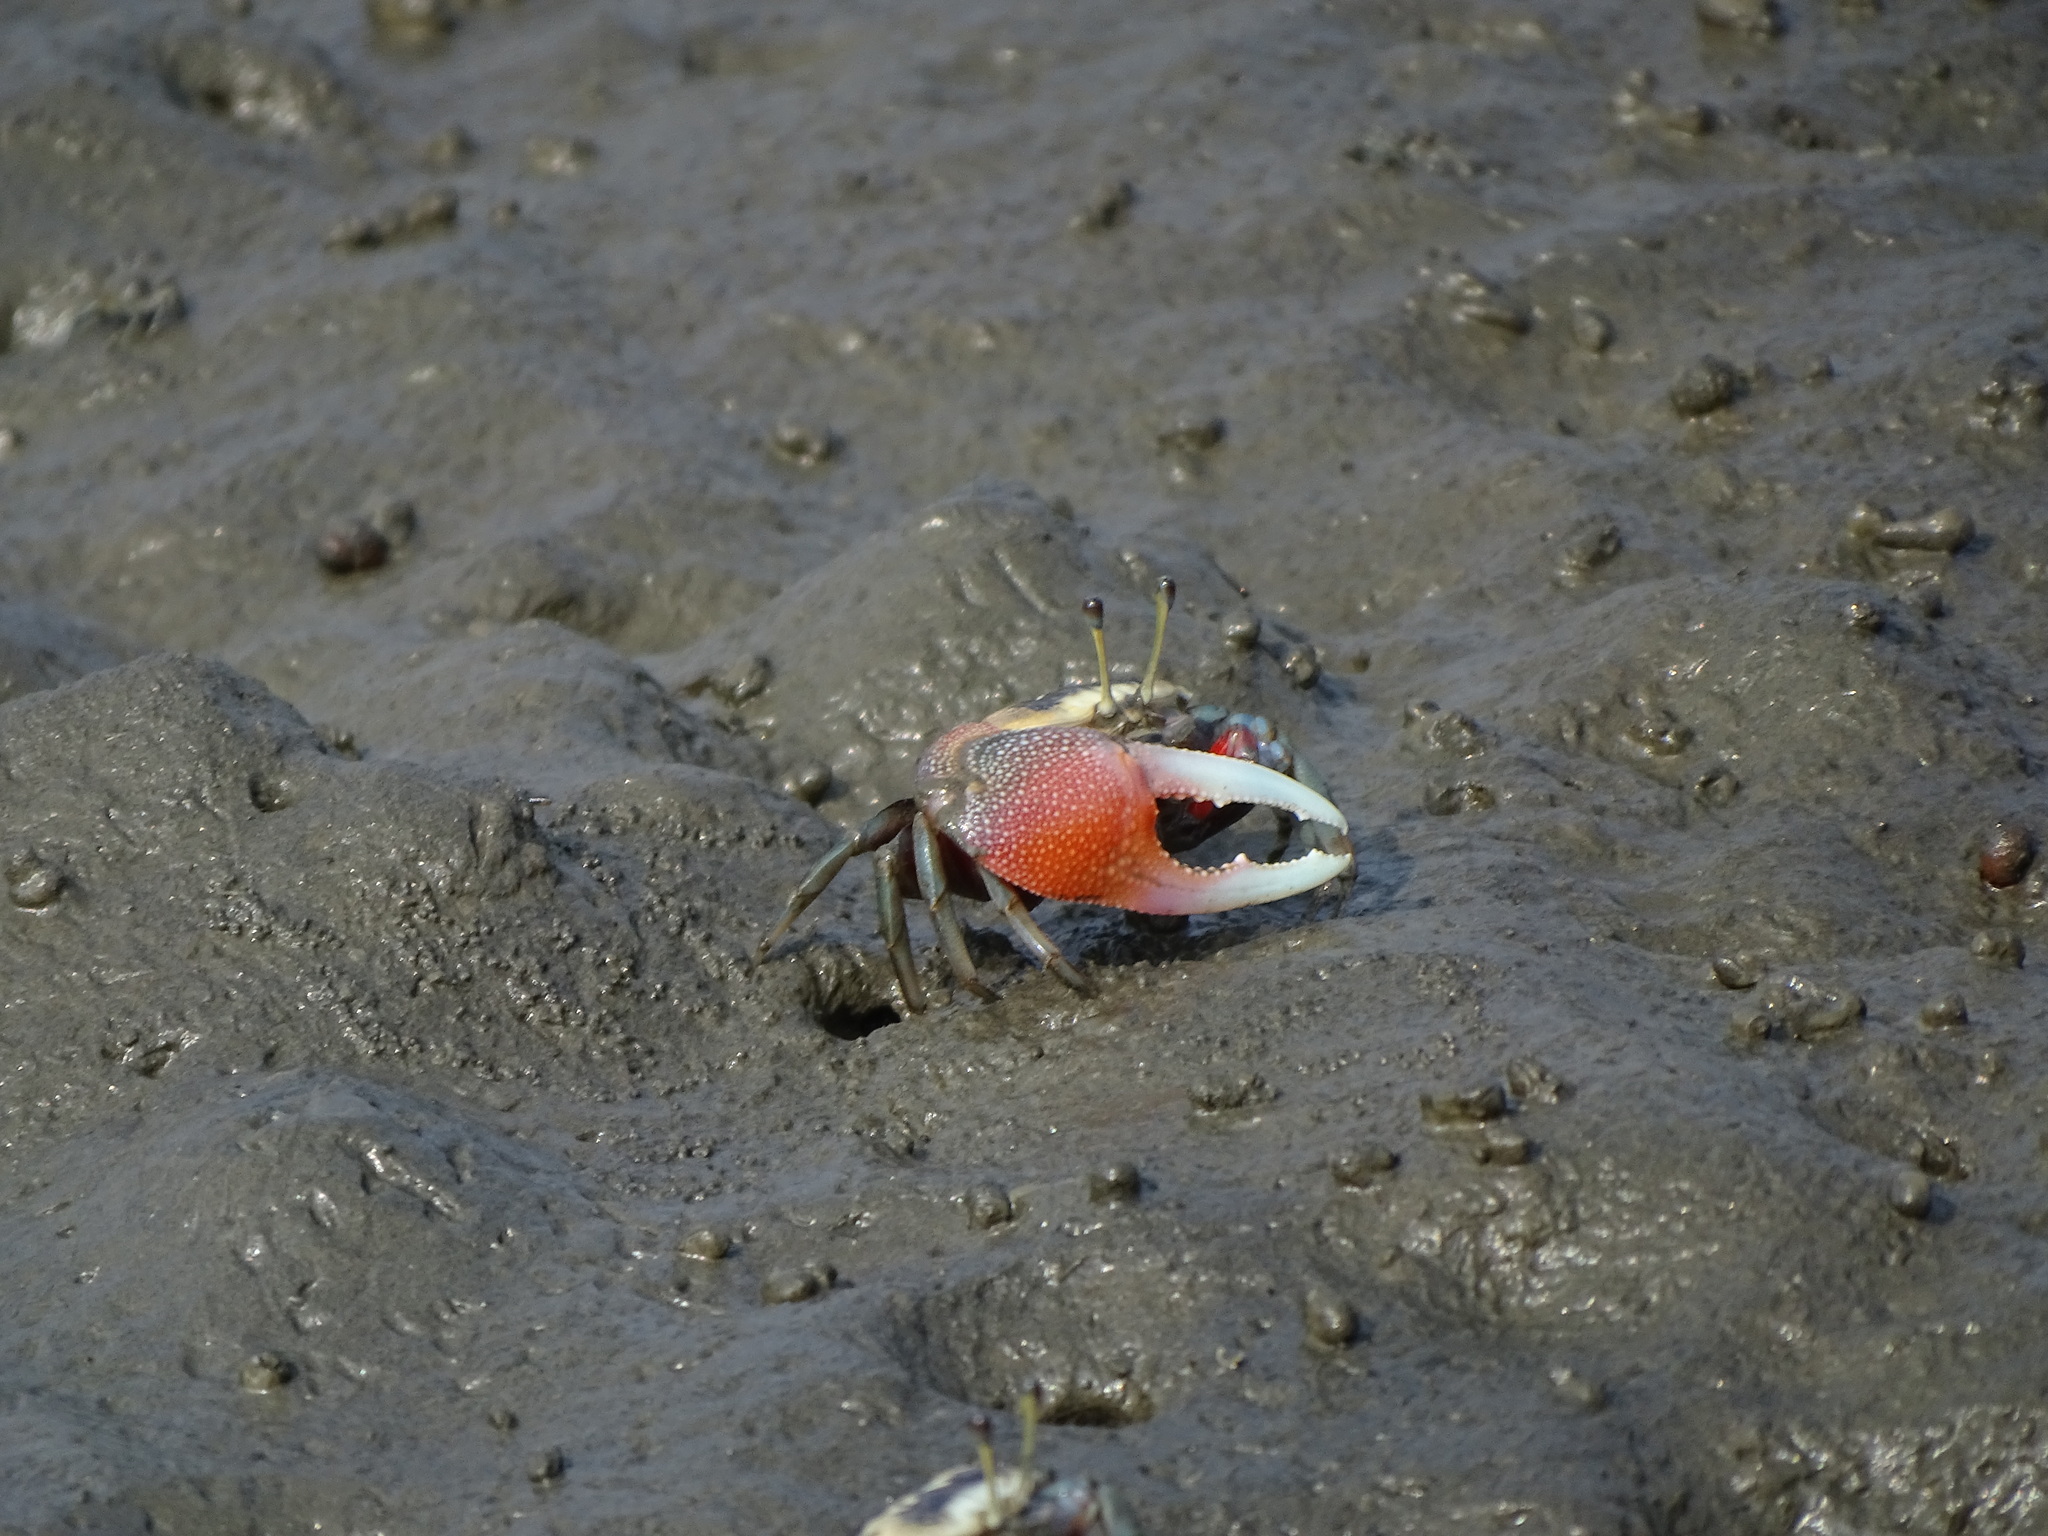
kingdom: Animalia
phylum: Arthropoda
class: Malacostraca
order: Decapoda
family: Ocypodidae
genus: Tubuca
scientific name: Tubuca arcuata
